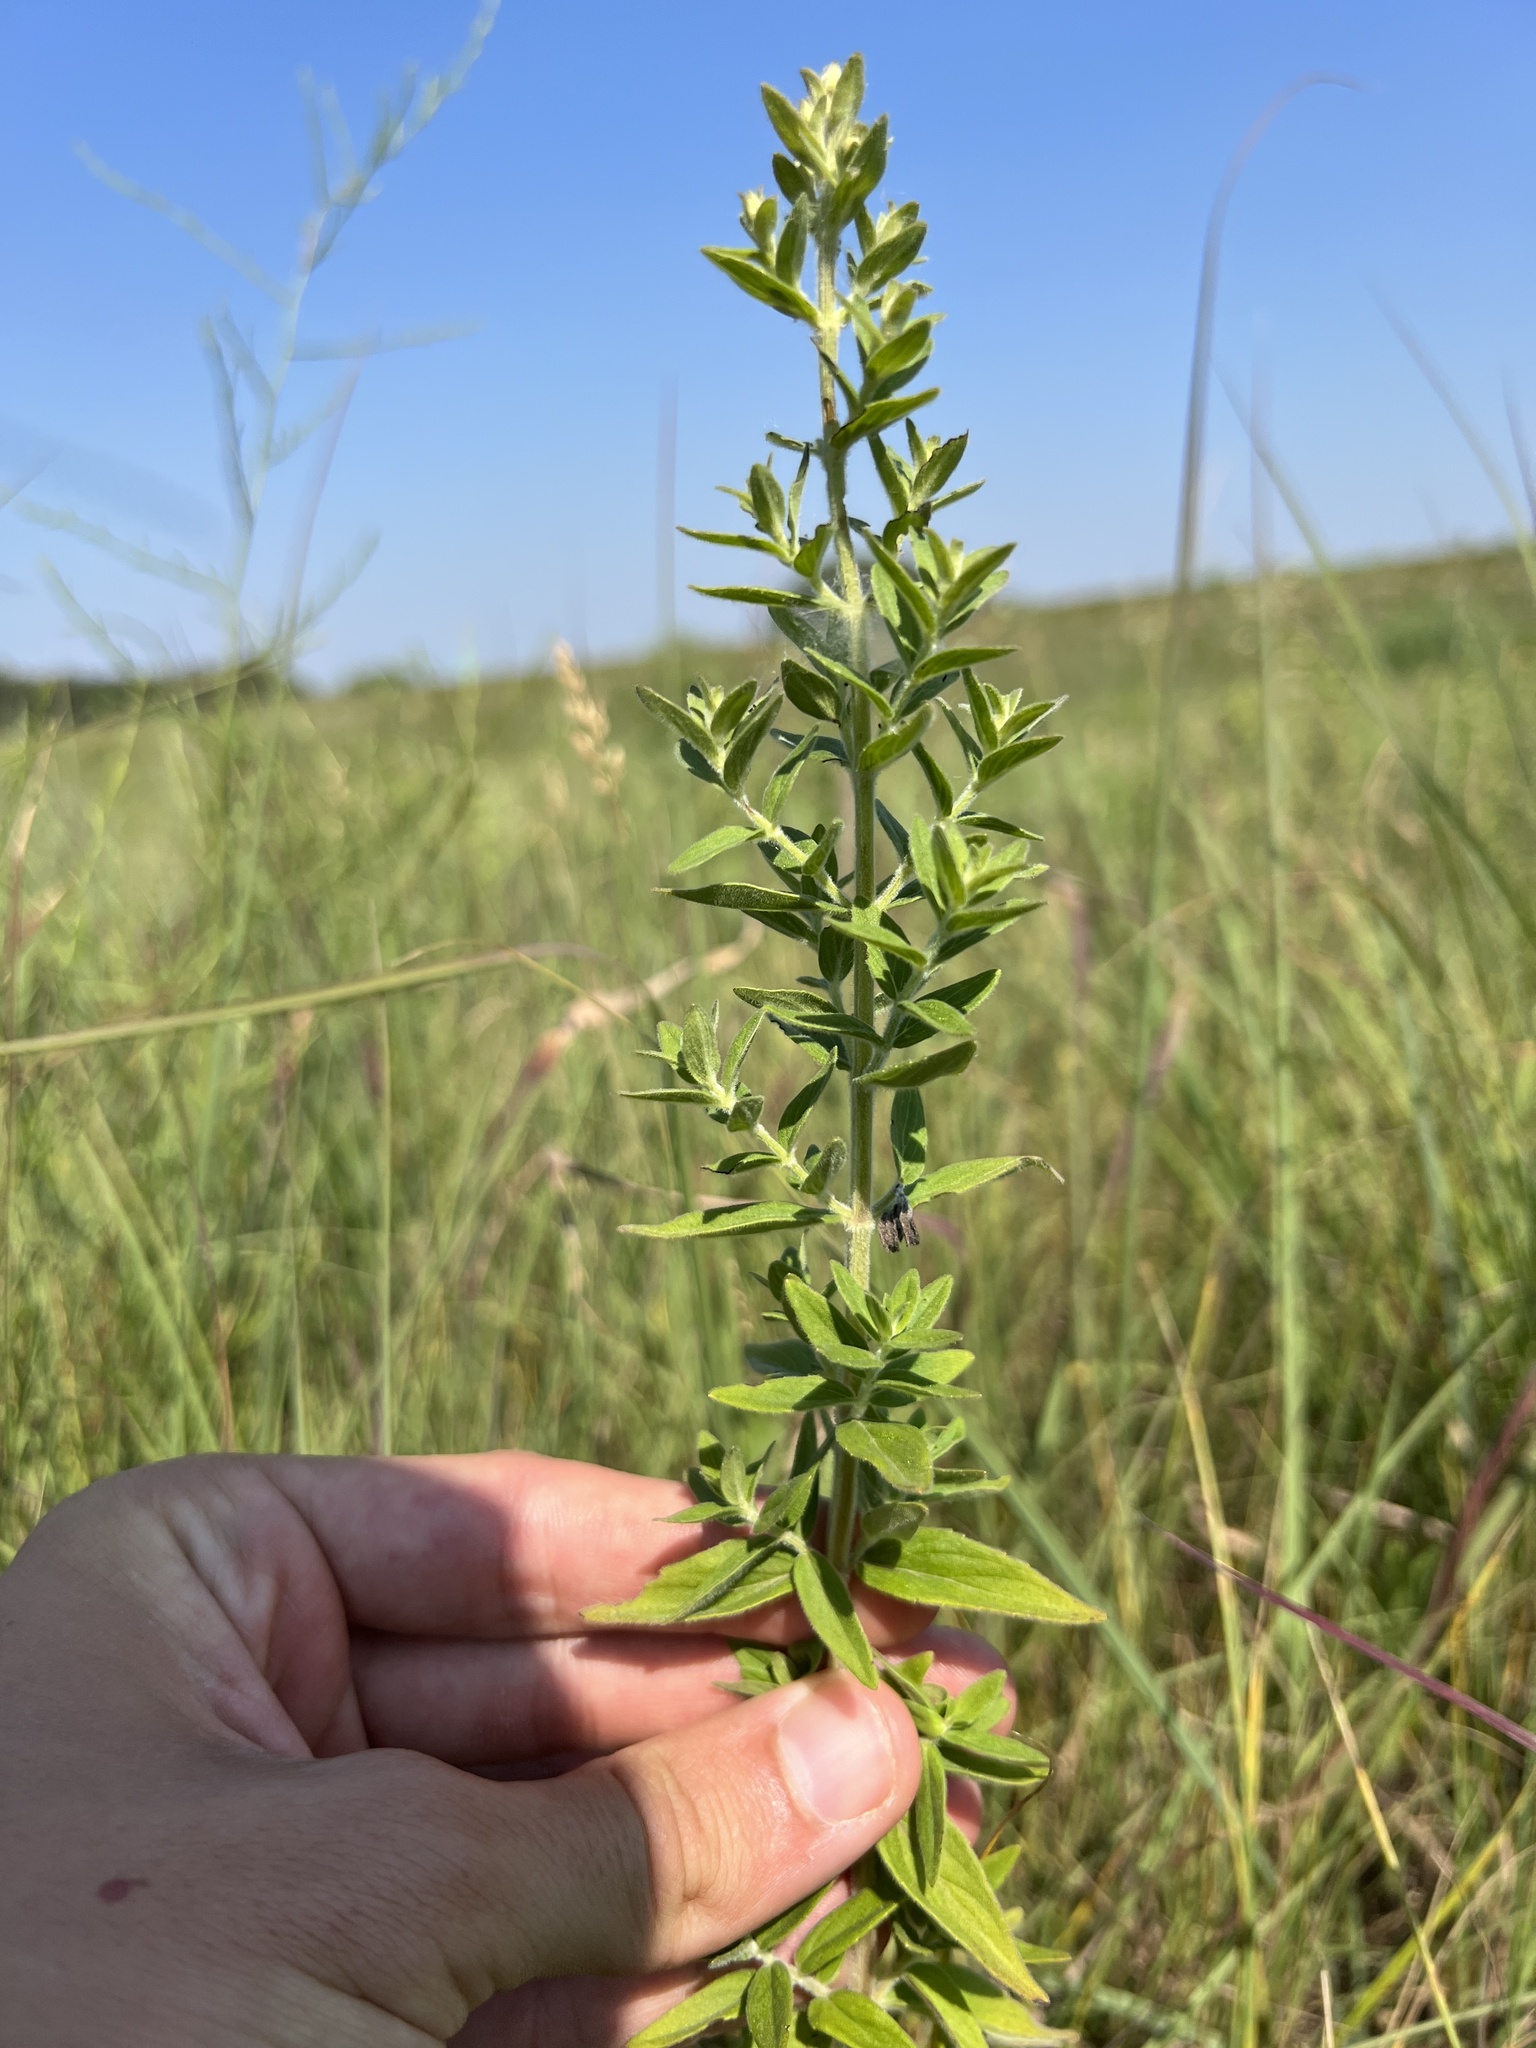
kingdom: Plantae
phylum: Tracheophyta
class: Magnoliopsida
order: Lamiales
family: Lamiaceae
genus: Pycnanthemum
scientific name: Pycnanthemum verticillatum
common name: Whorled mountain-mint
